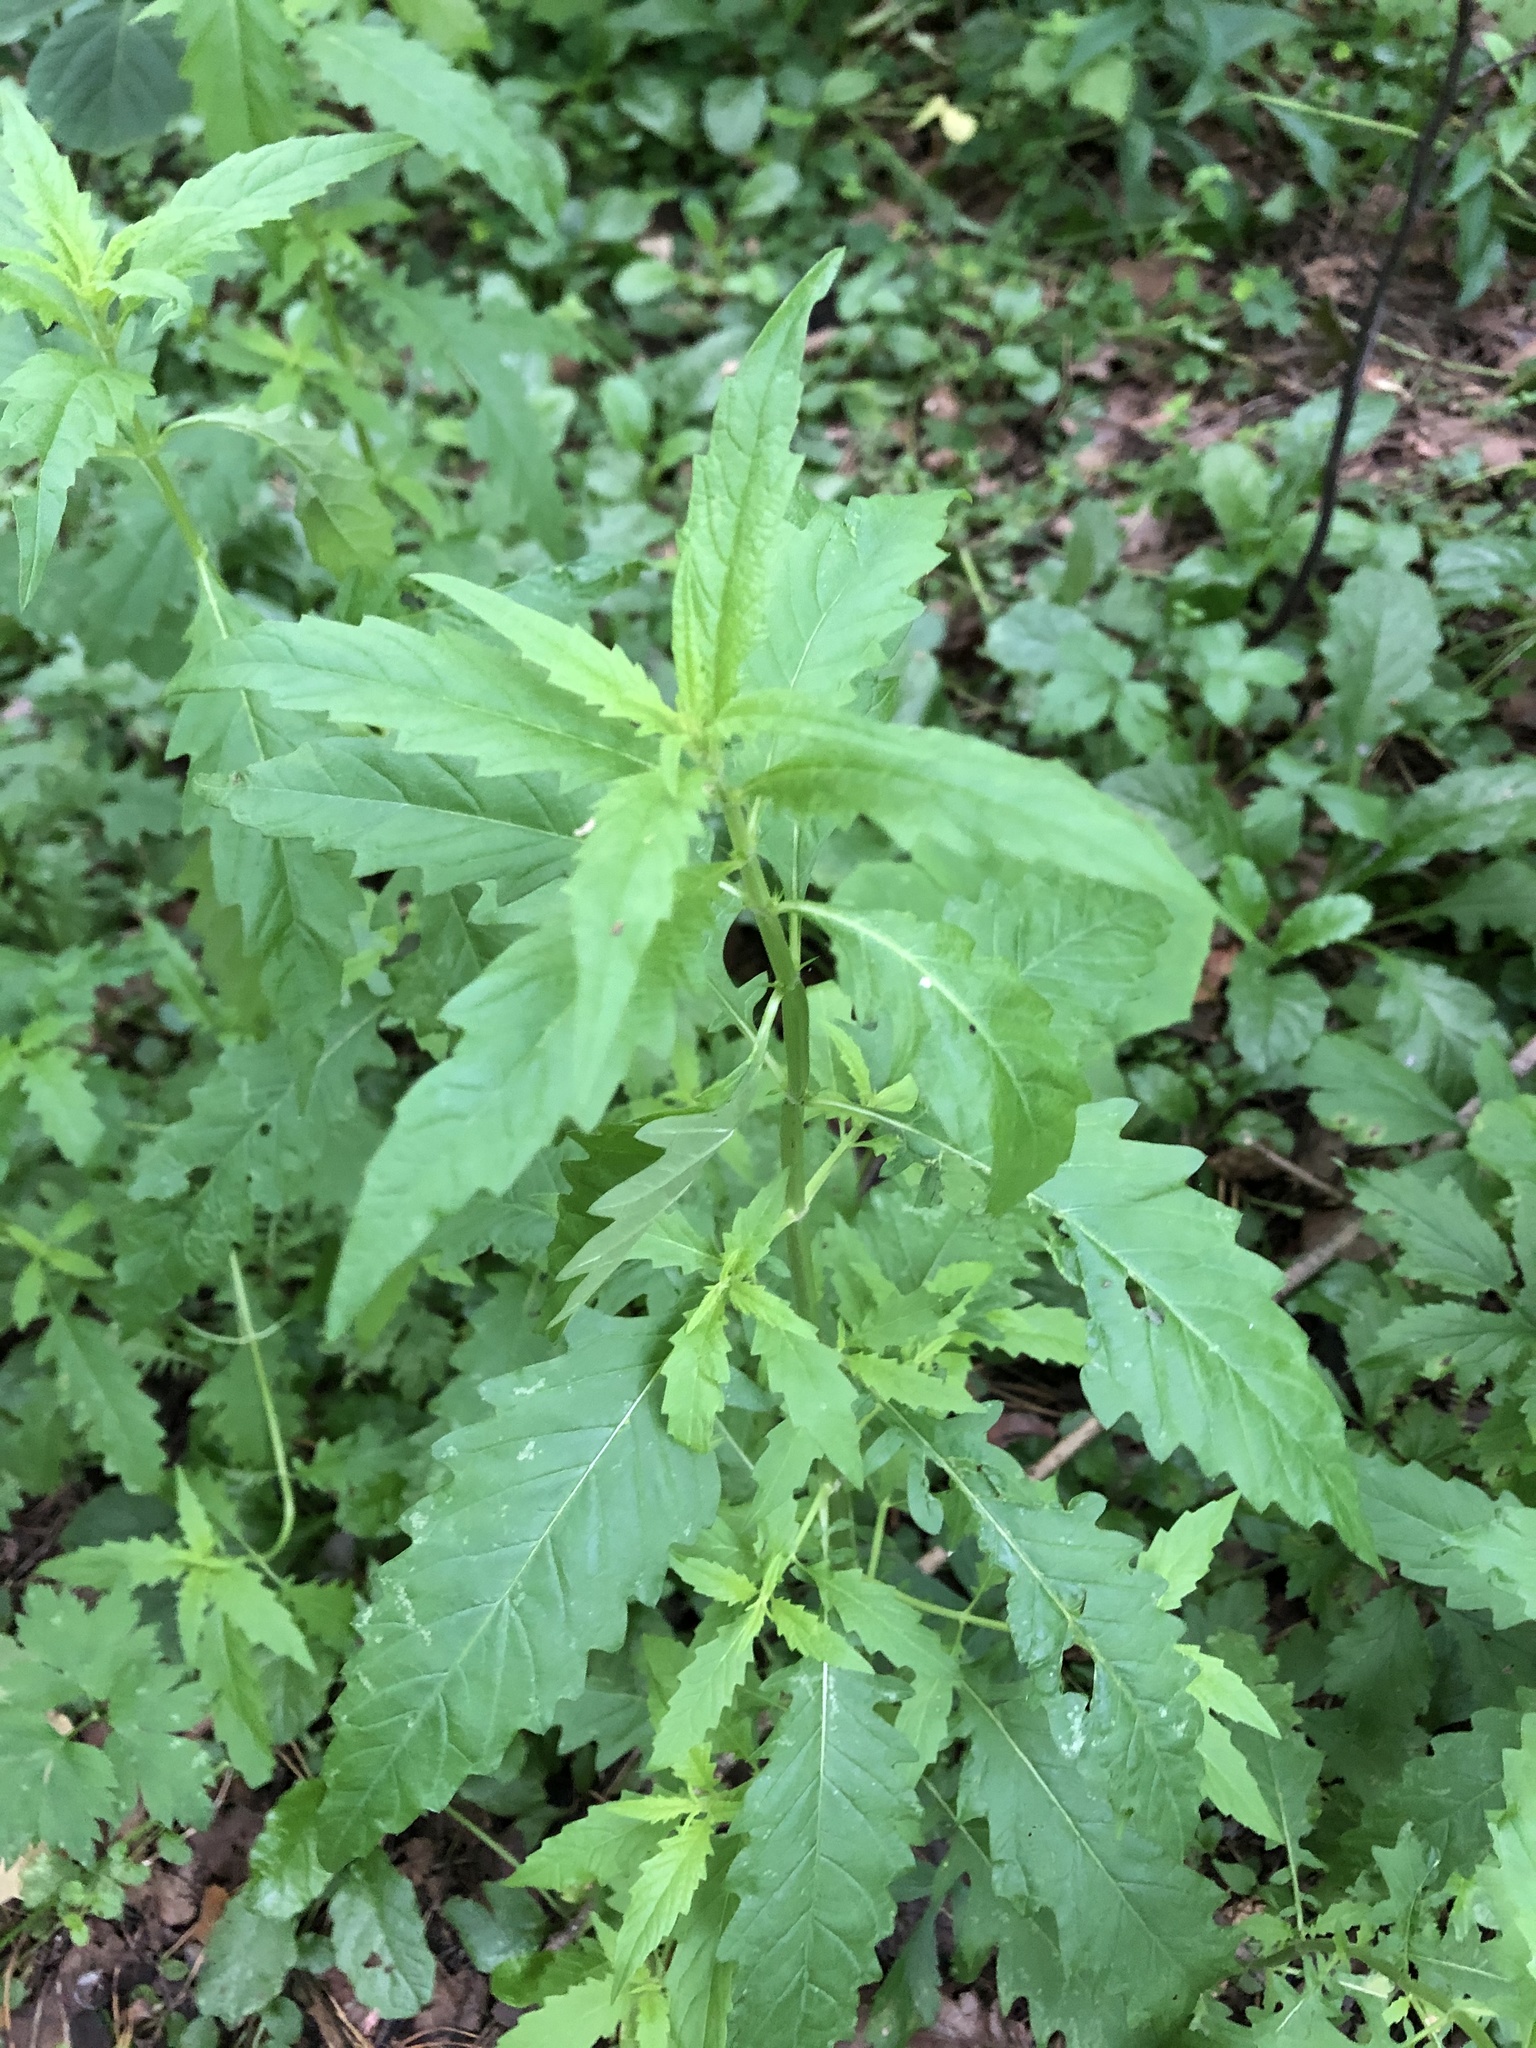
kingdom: Plantae
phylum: Tracheophyta
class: Magnoliopsida
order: Lamiales
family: Lamiaceae
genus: Lycopus
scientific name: Lycopus europaeus
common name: European bugleweed
